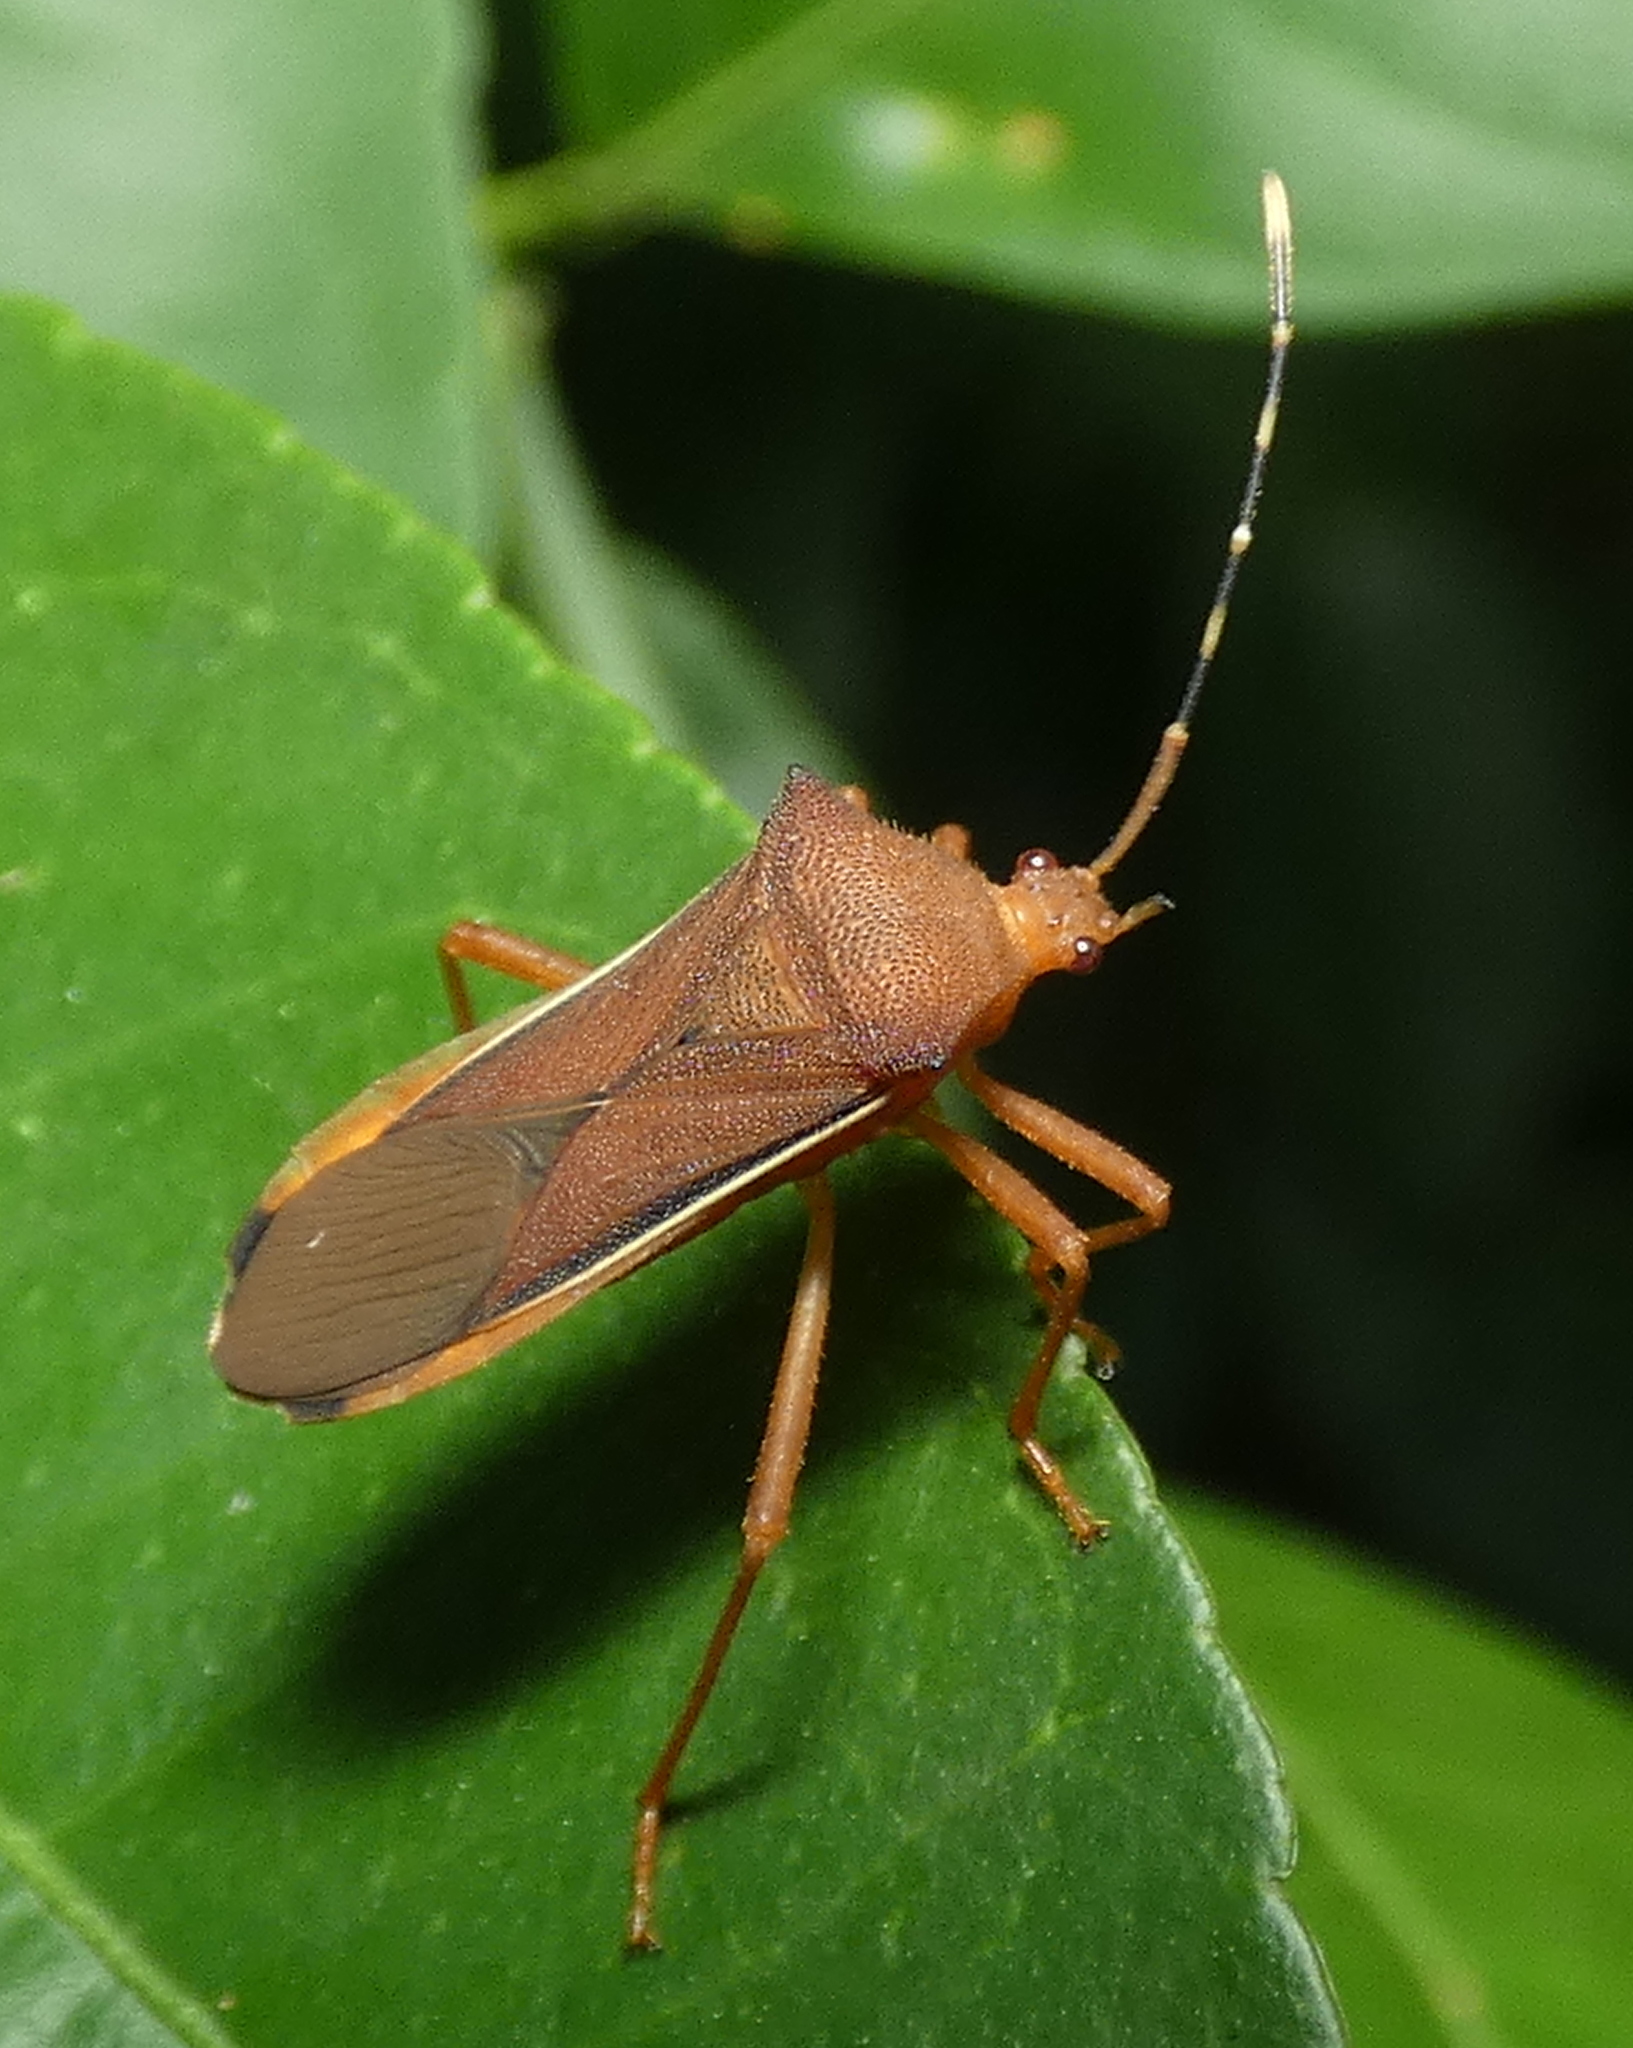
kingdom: Animalia
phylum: Arthropoda
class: Insecta
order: Hemiptera
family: Coreidae
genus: Anasa
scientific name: Anasa varicornis
